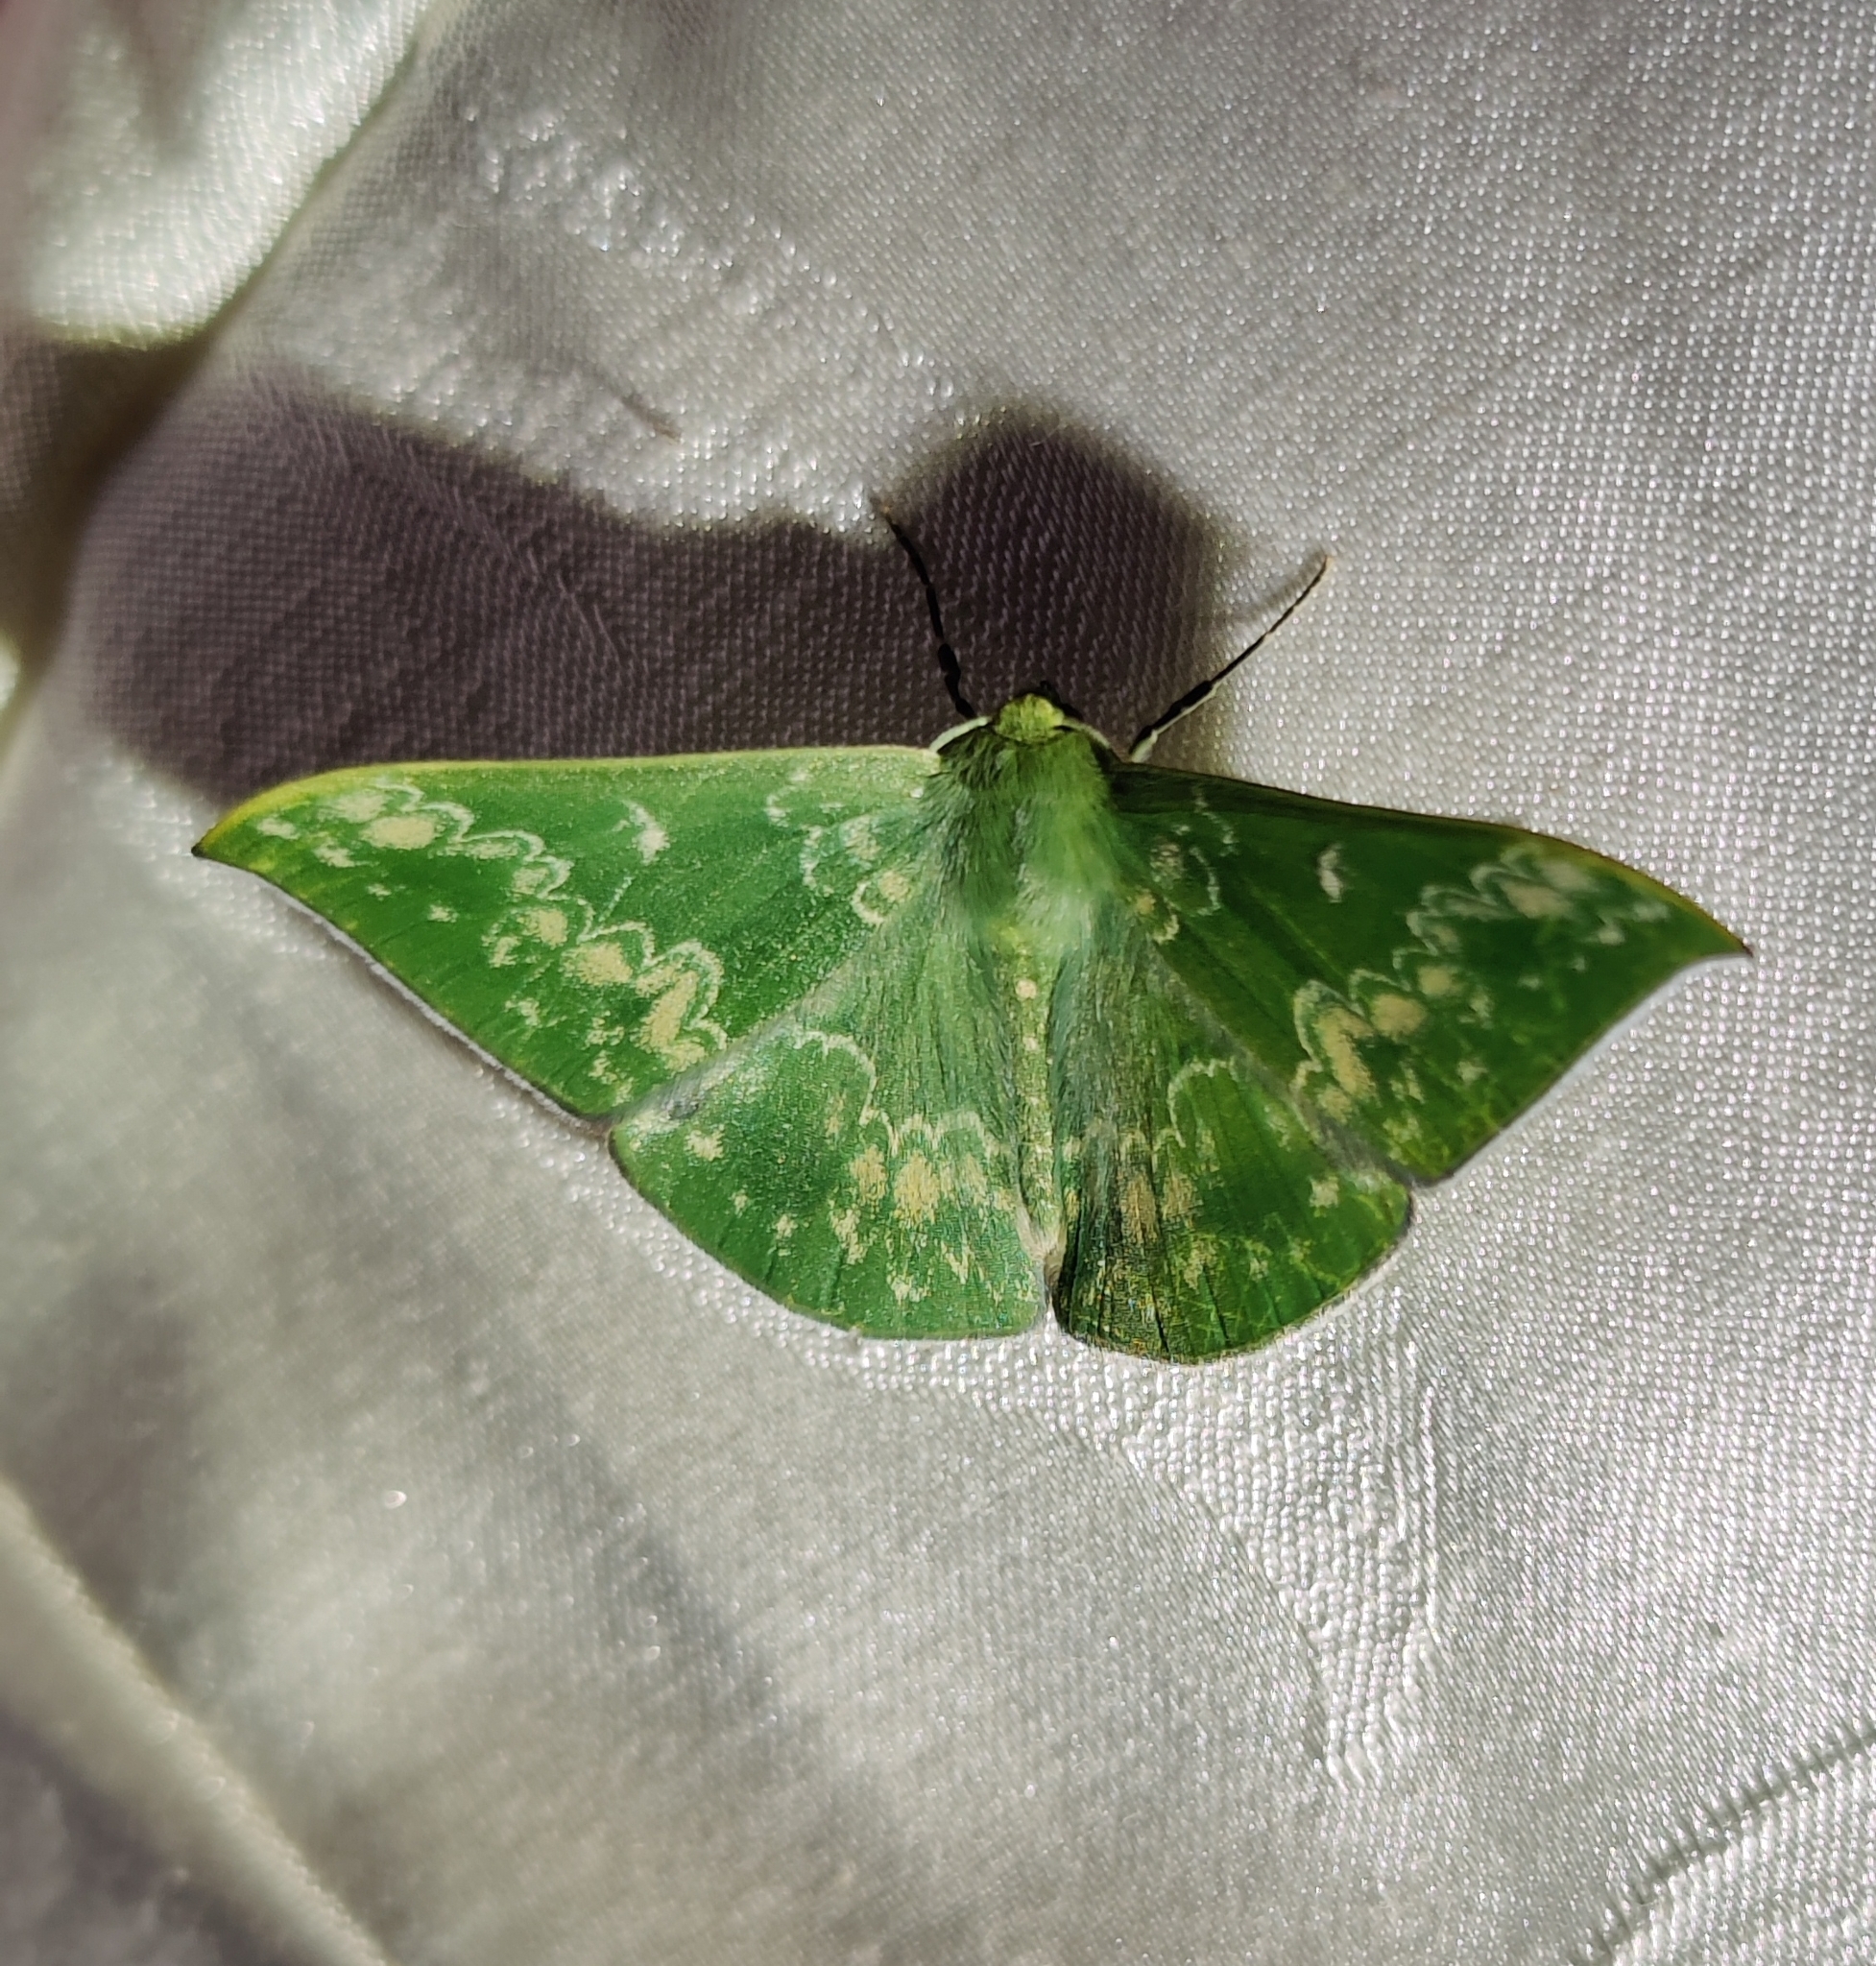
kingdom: Animalia
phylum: Arthropoda
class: Insecta
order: Lepidoptera
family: Geometridae
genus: Tanaorhinus
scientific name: Tanaorhinus kina
